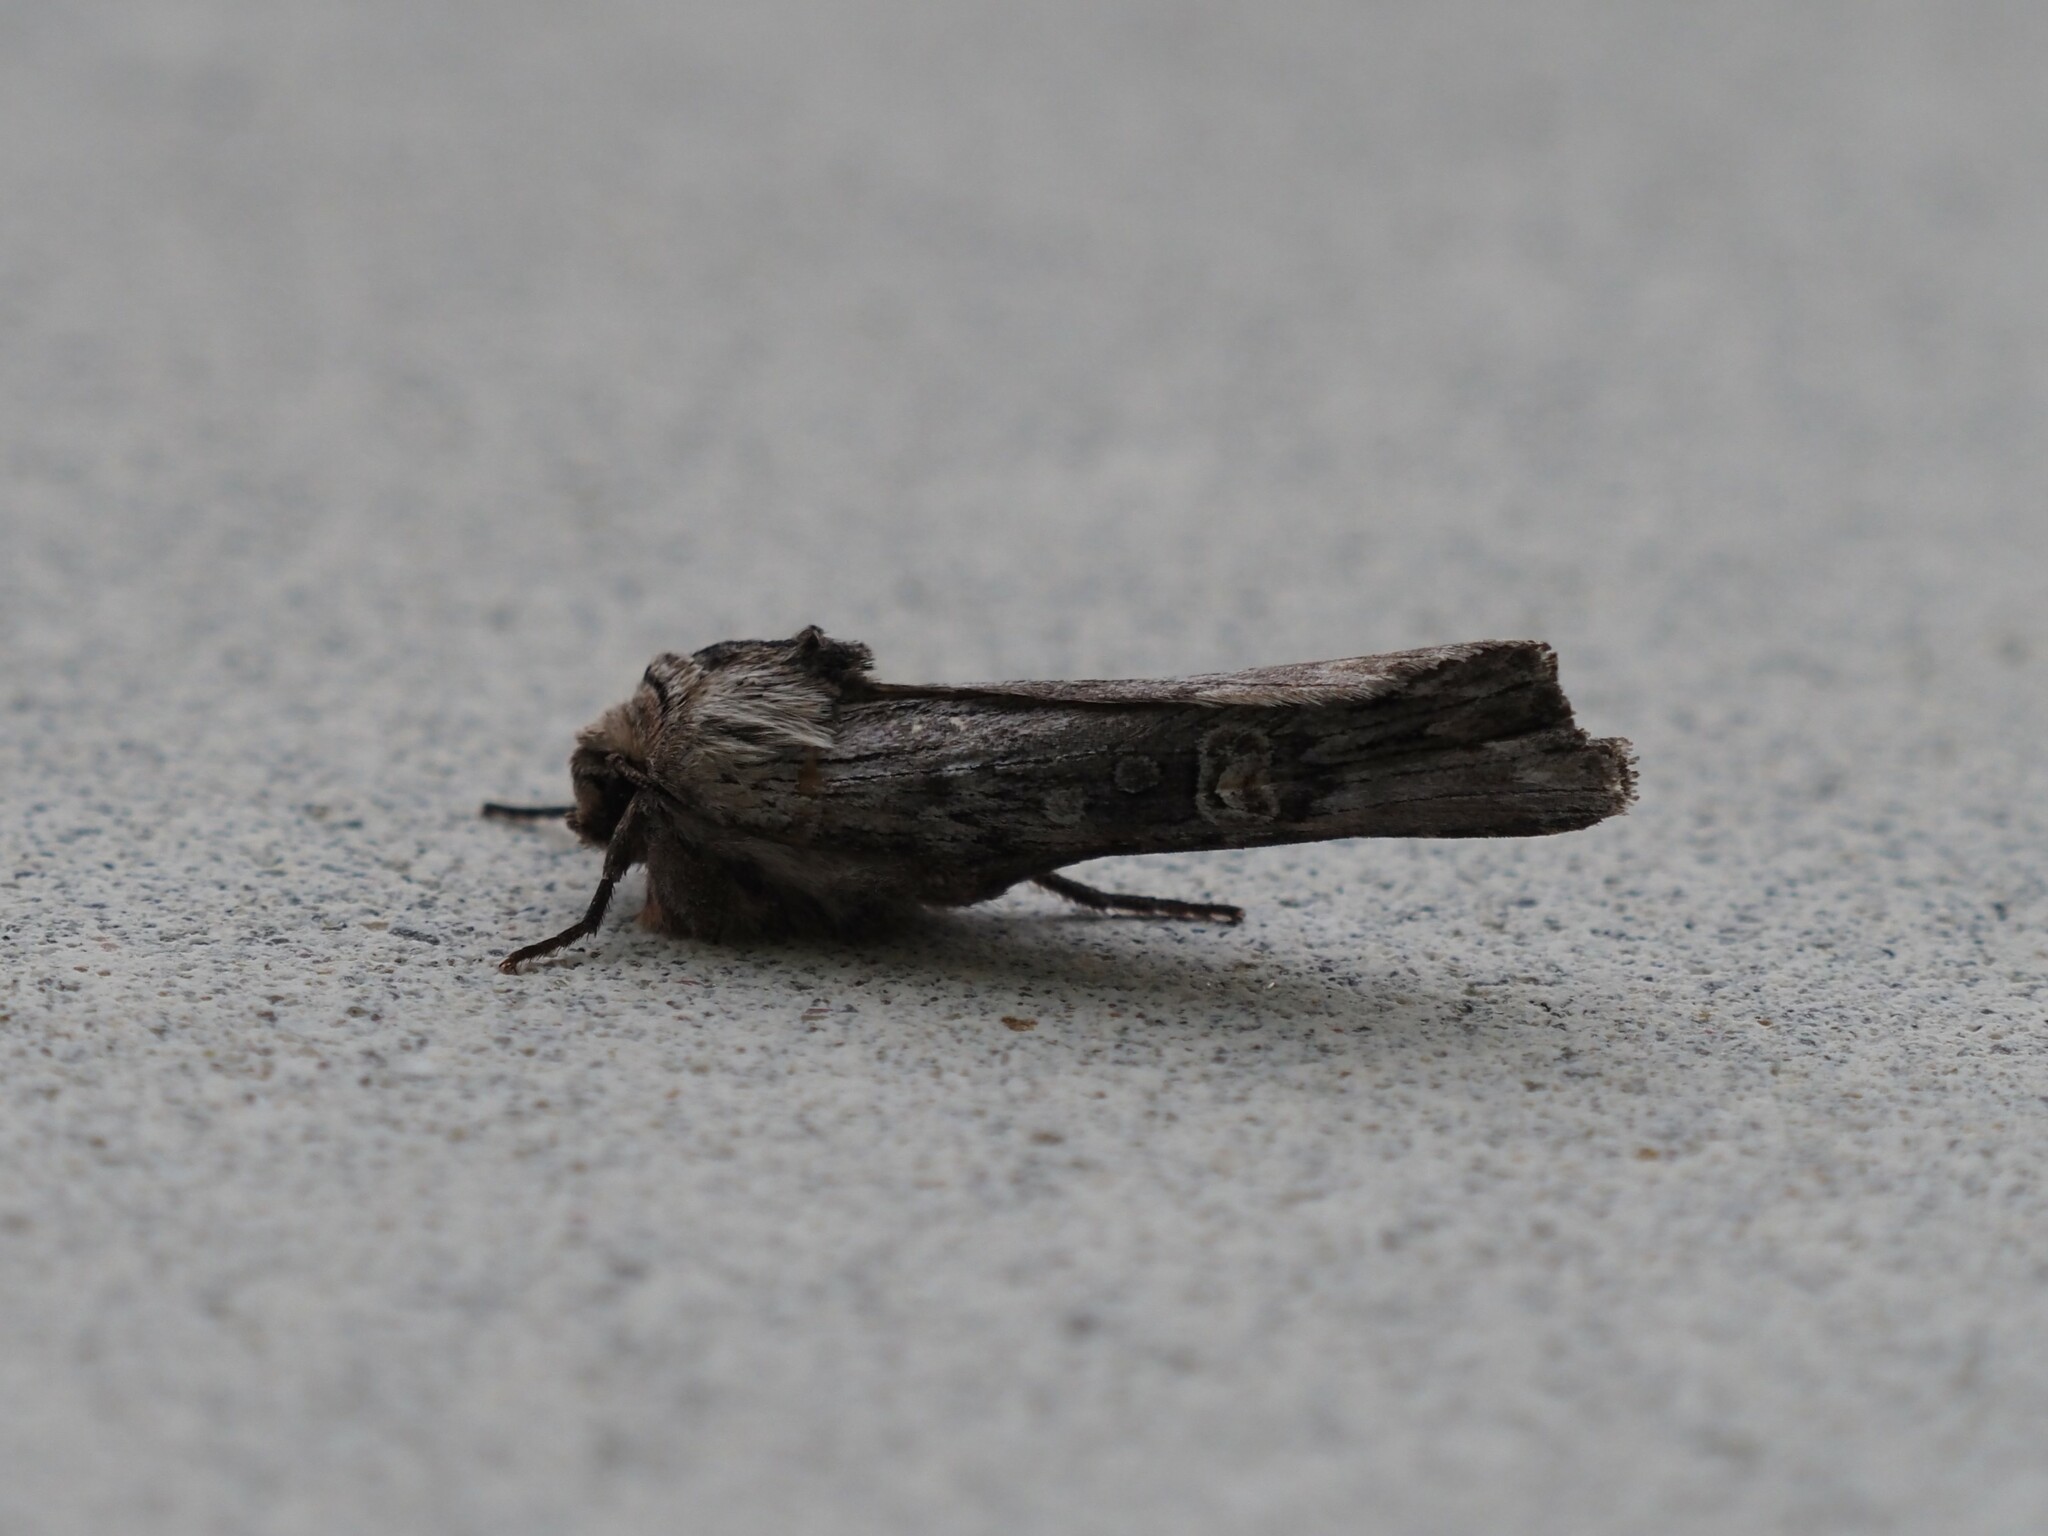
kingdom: Animalia
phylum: Arthropoda
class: Insecta
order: Lepidoptera
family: Noctuidae
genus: Xylena
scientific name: Xylena germana
